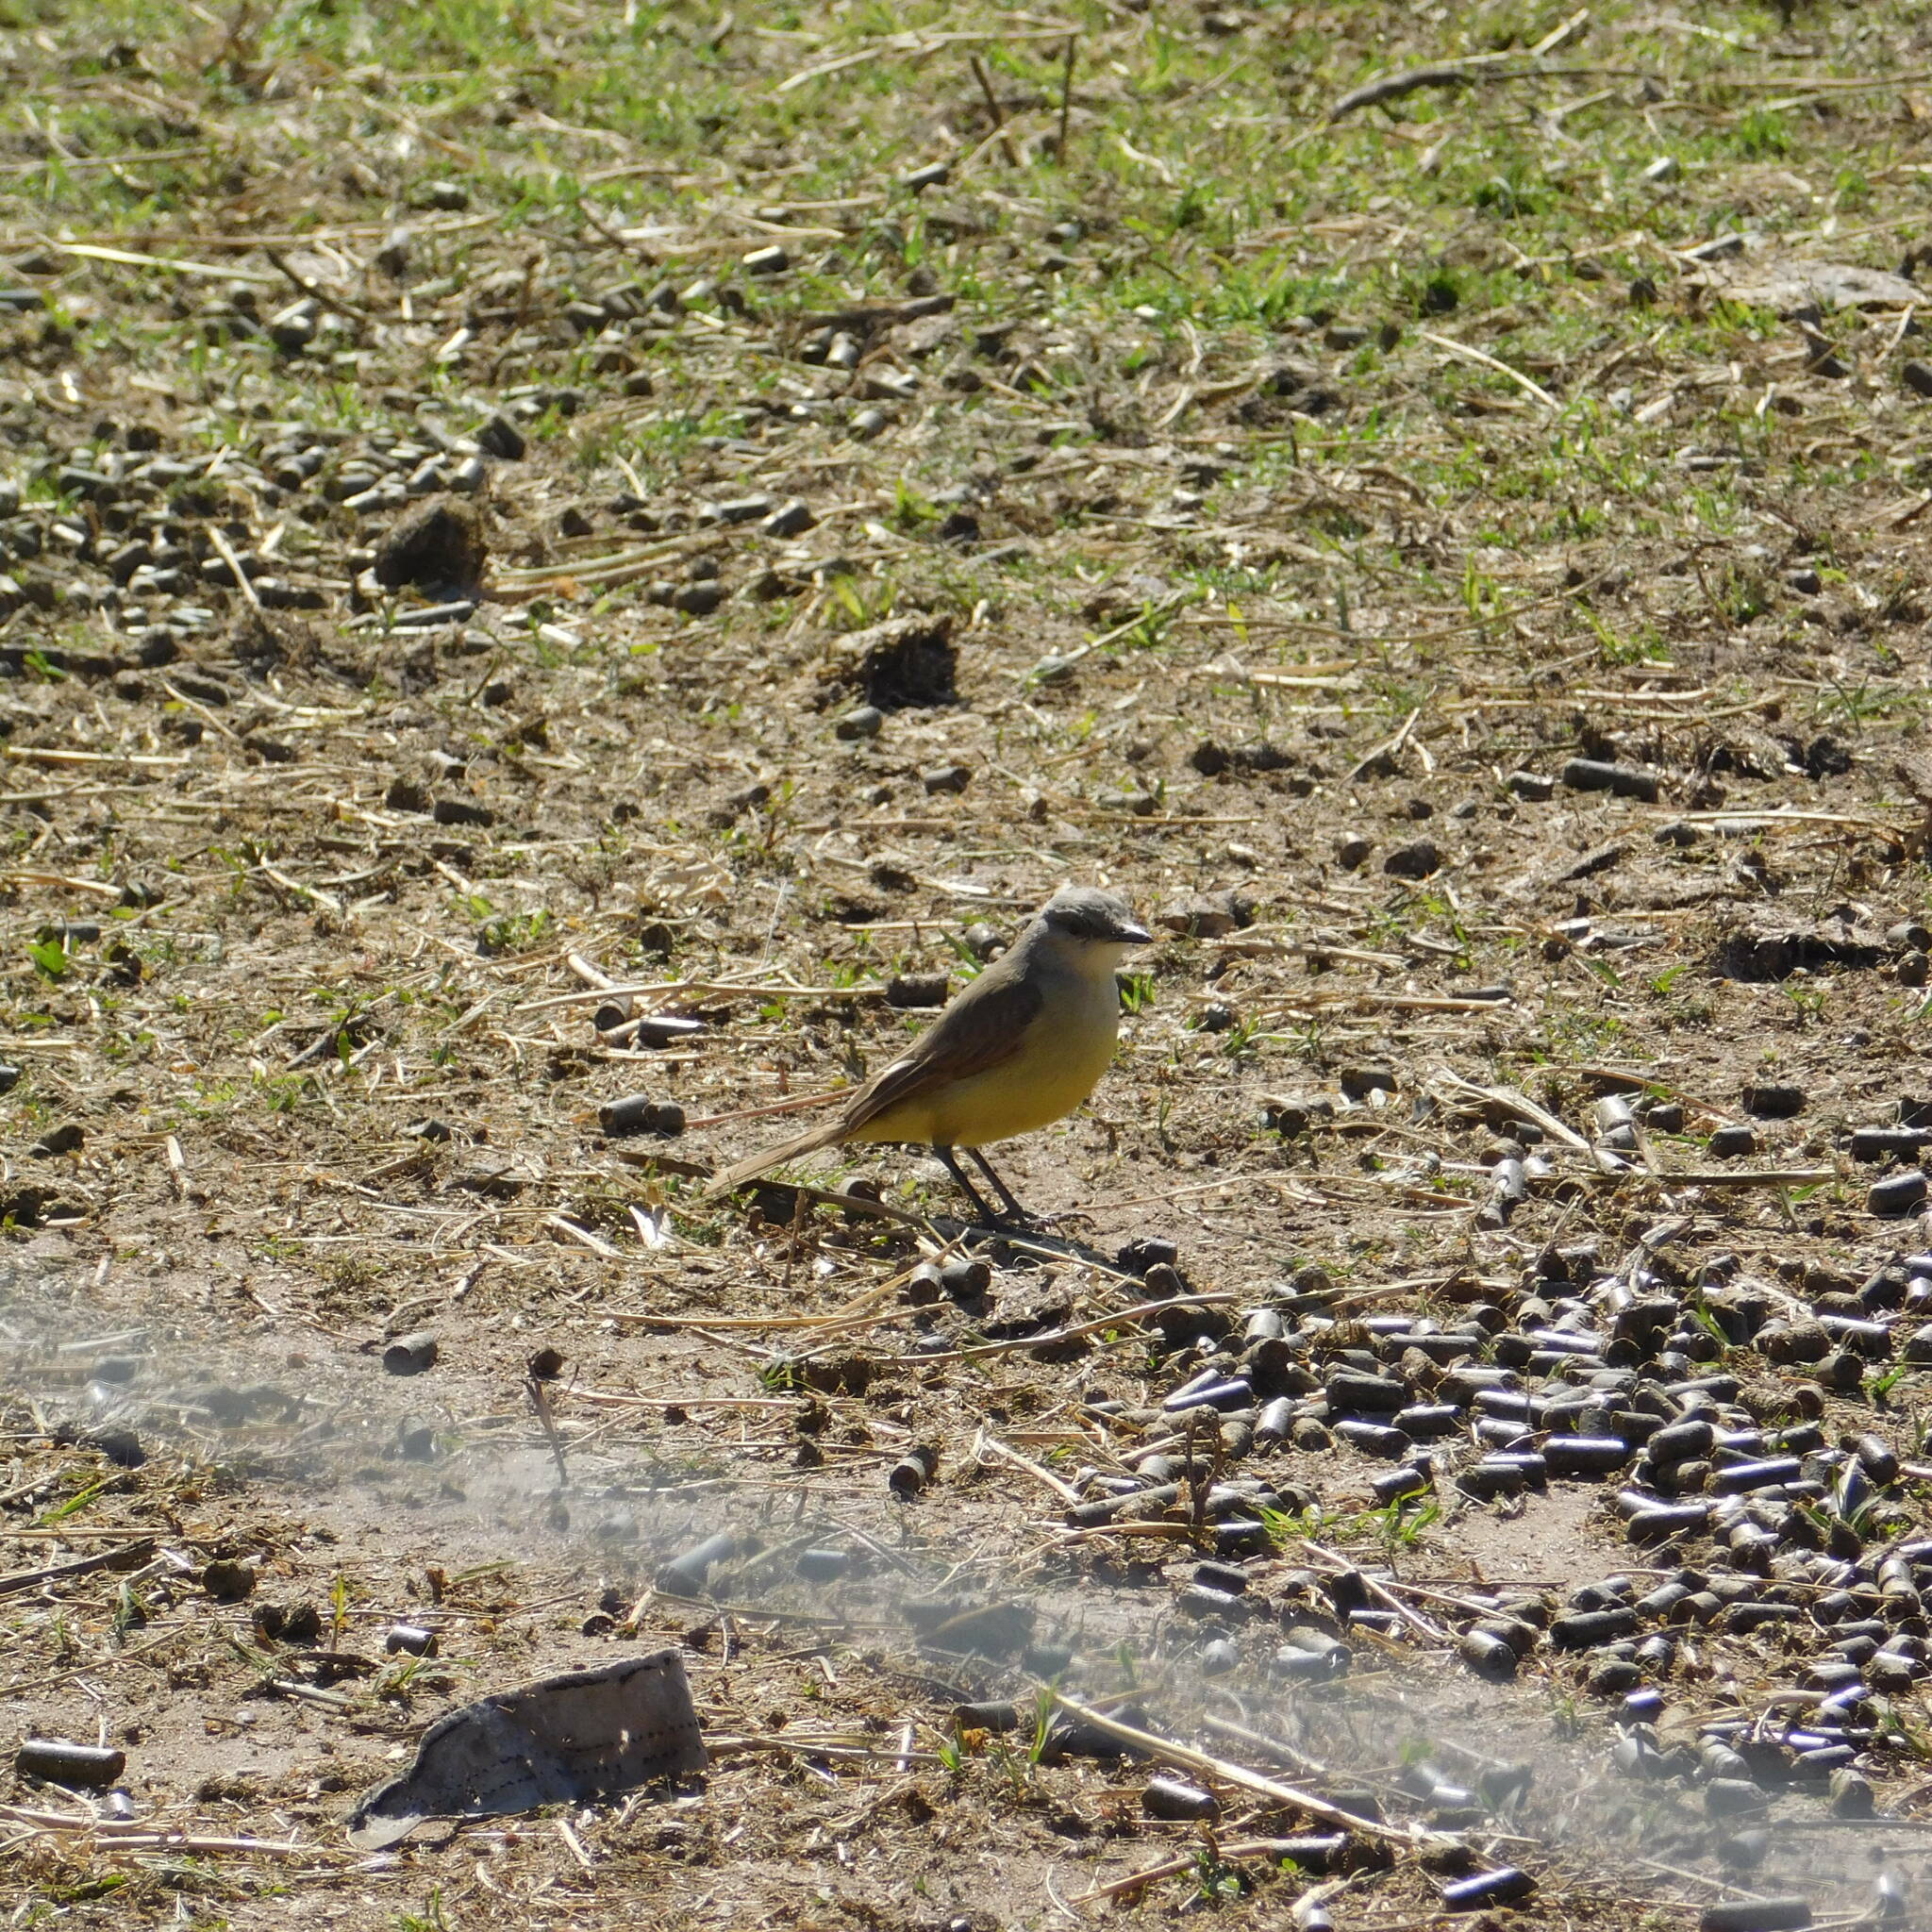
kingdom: Animalia
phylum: Chordata
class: Aves
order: Passeriformes
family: Tyrannidae
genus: Machetornis
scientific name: Machetornis rixosa
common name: Cattle tyrant
